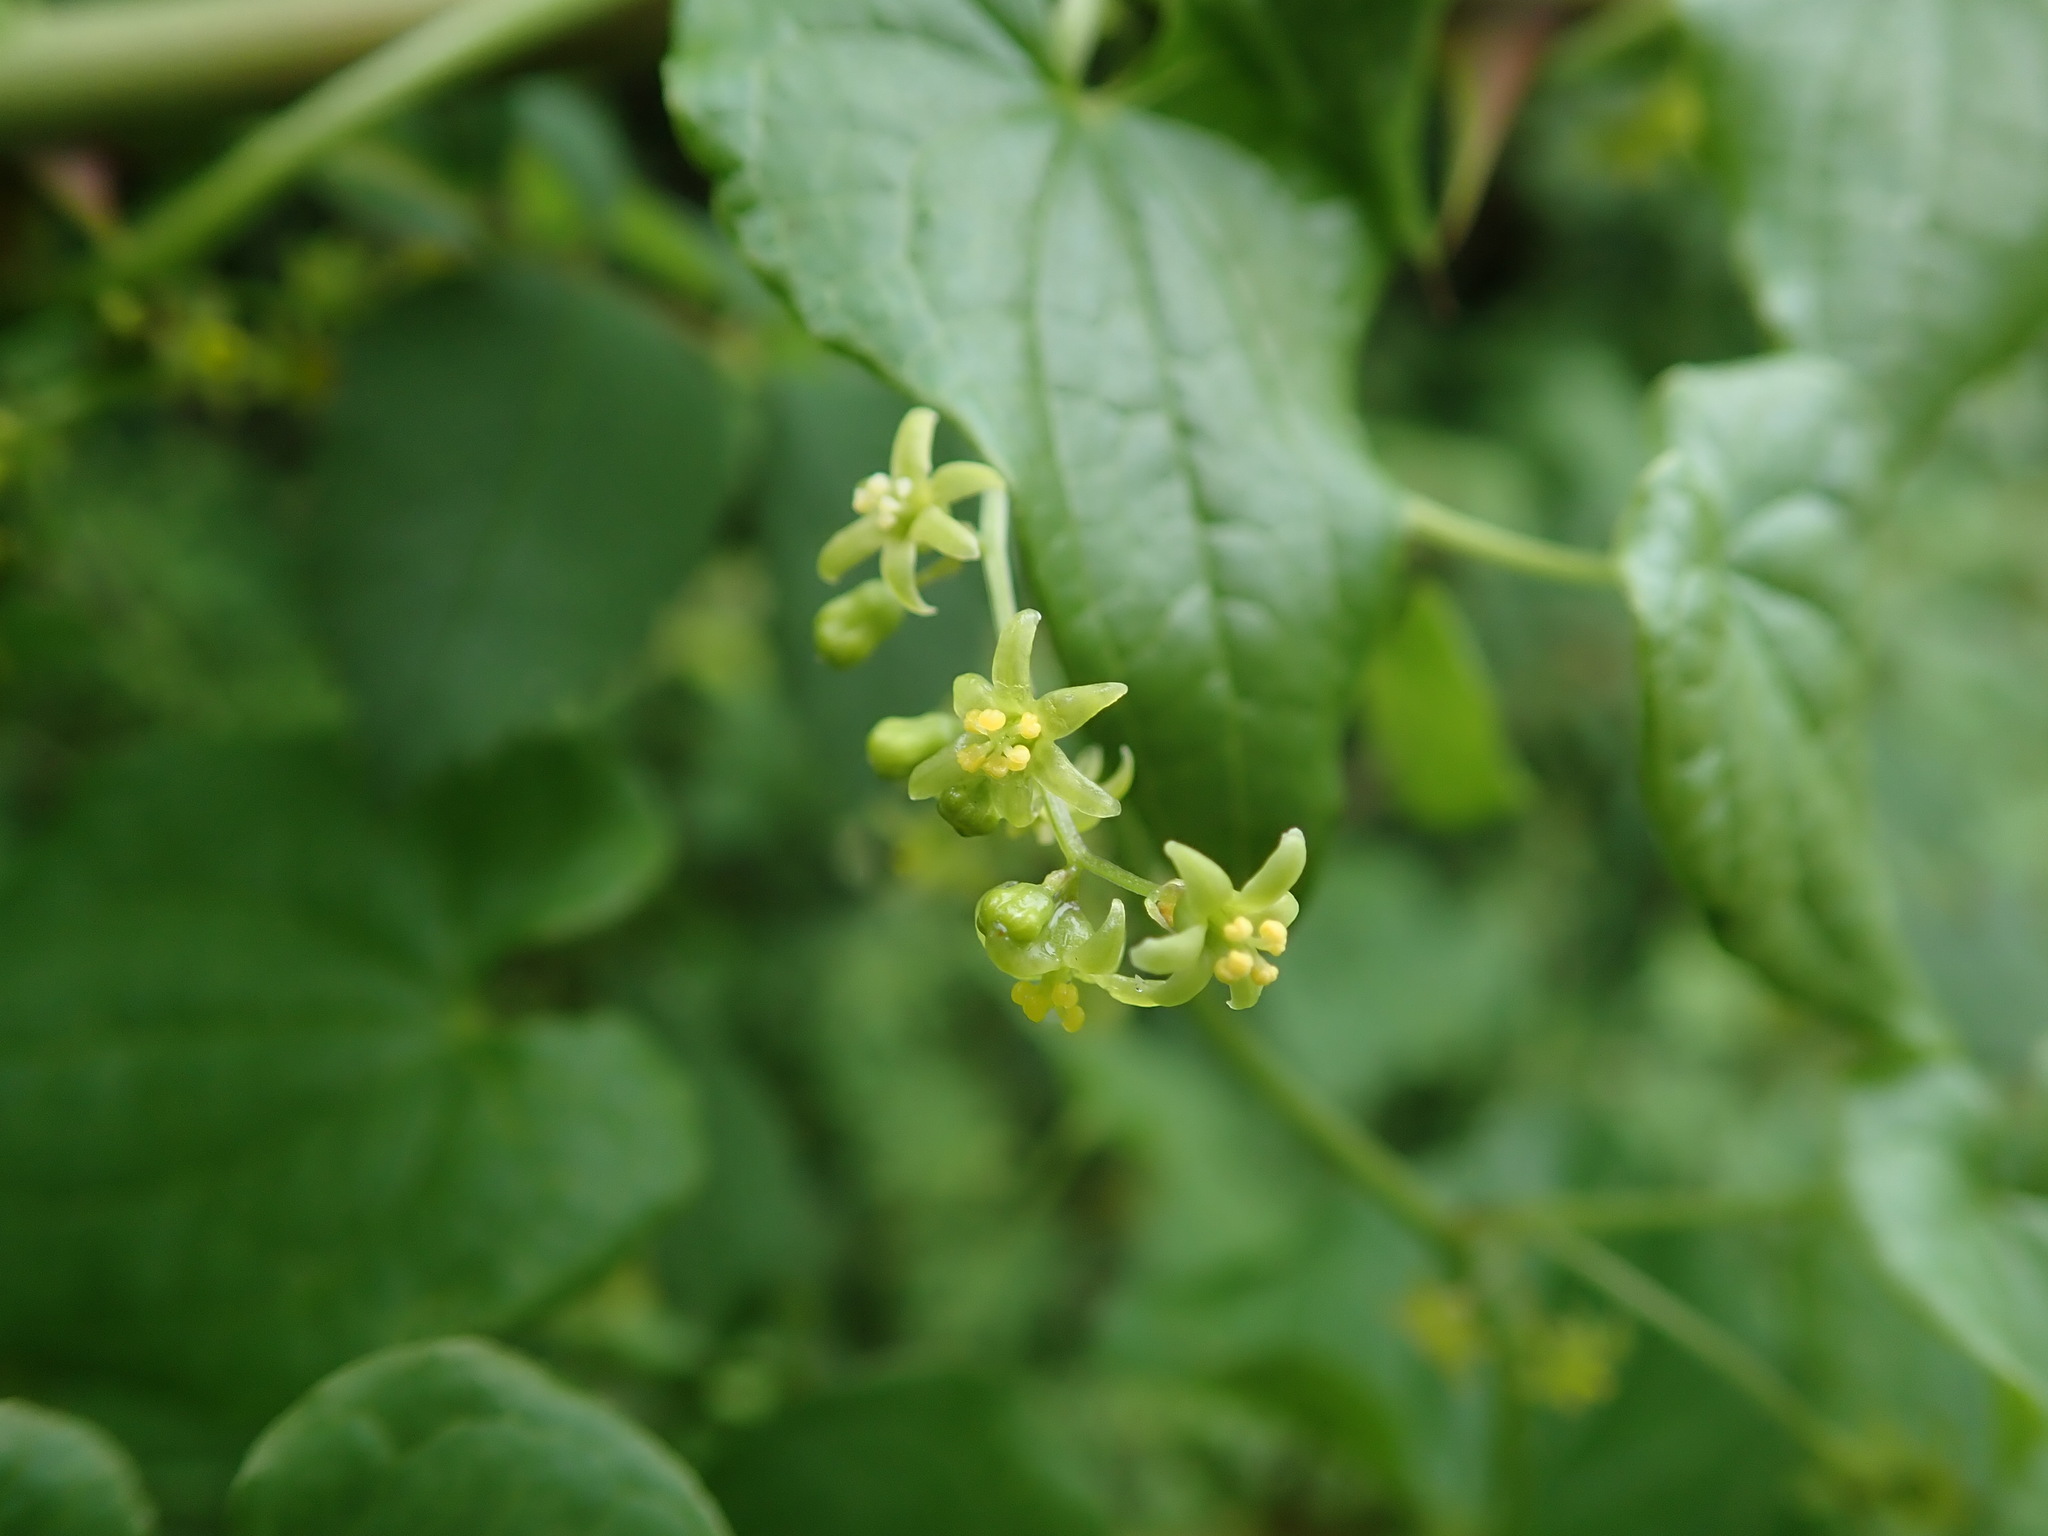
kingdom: Plantae
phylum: Tracheophyta
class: Liliopsida
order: Dioscoreales
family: Dioscoreaceae
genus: Dioscorea
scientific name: Dioscorea communis
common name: Black-bindweed
